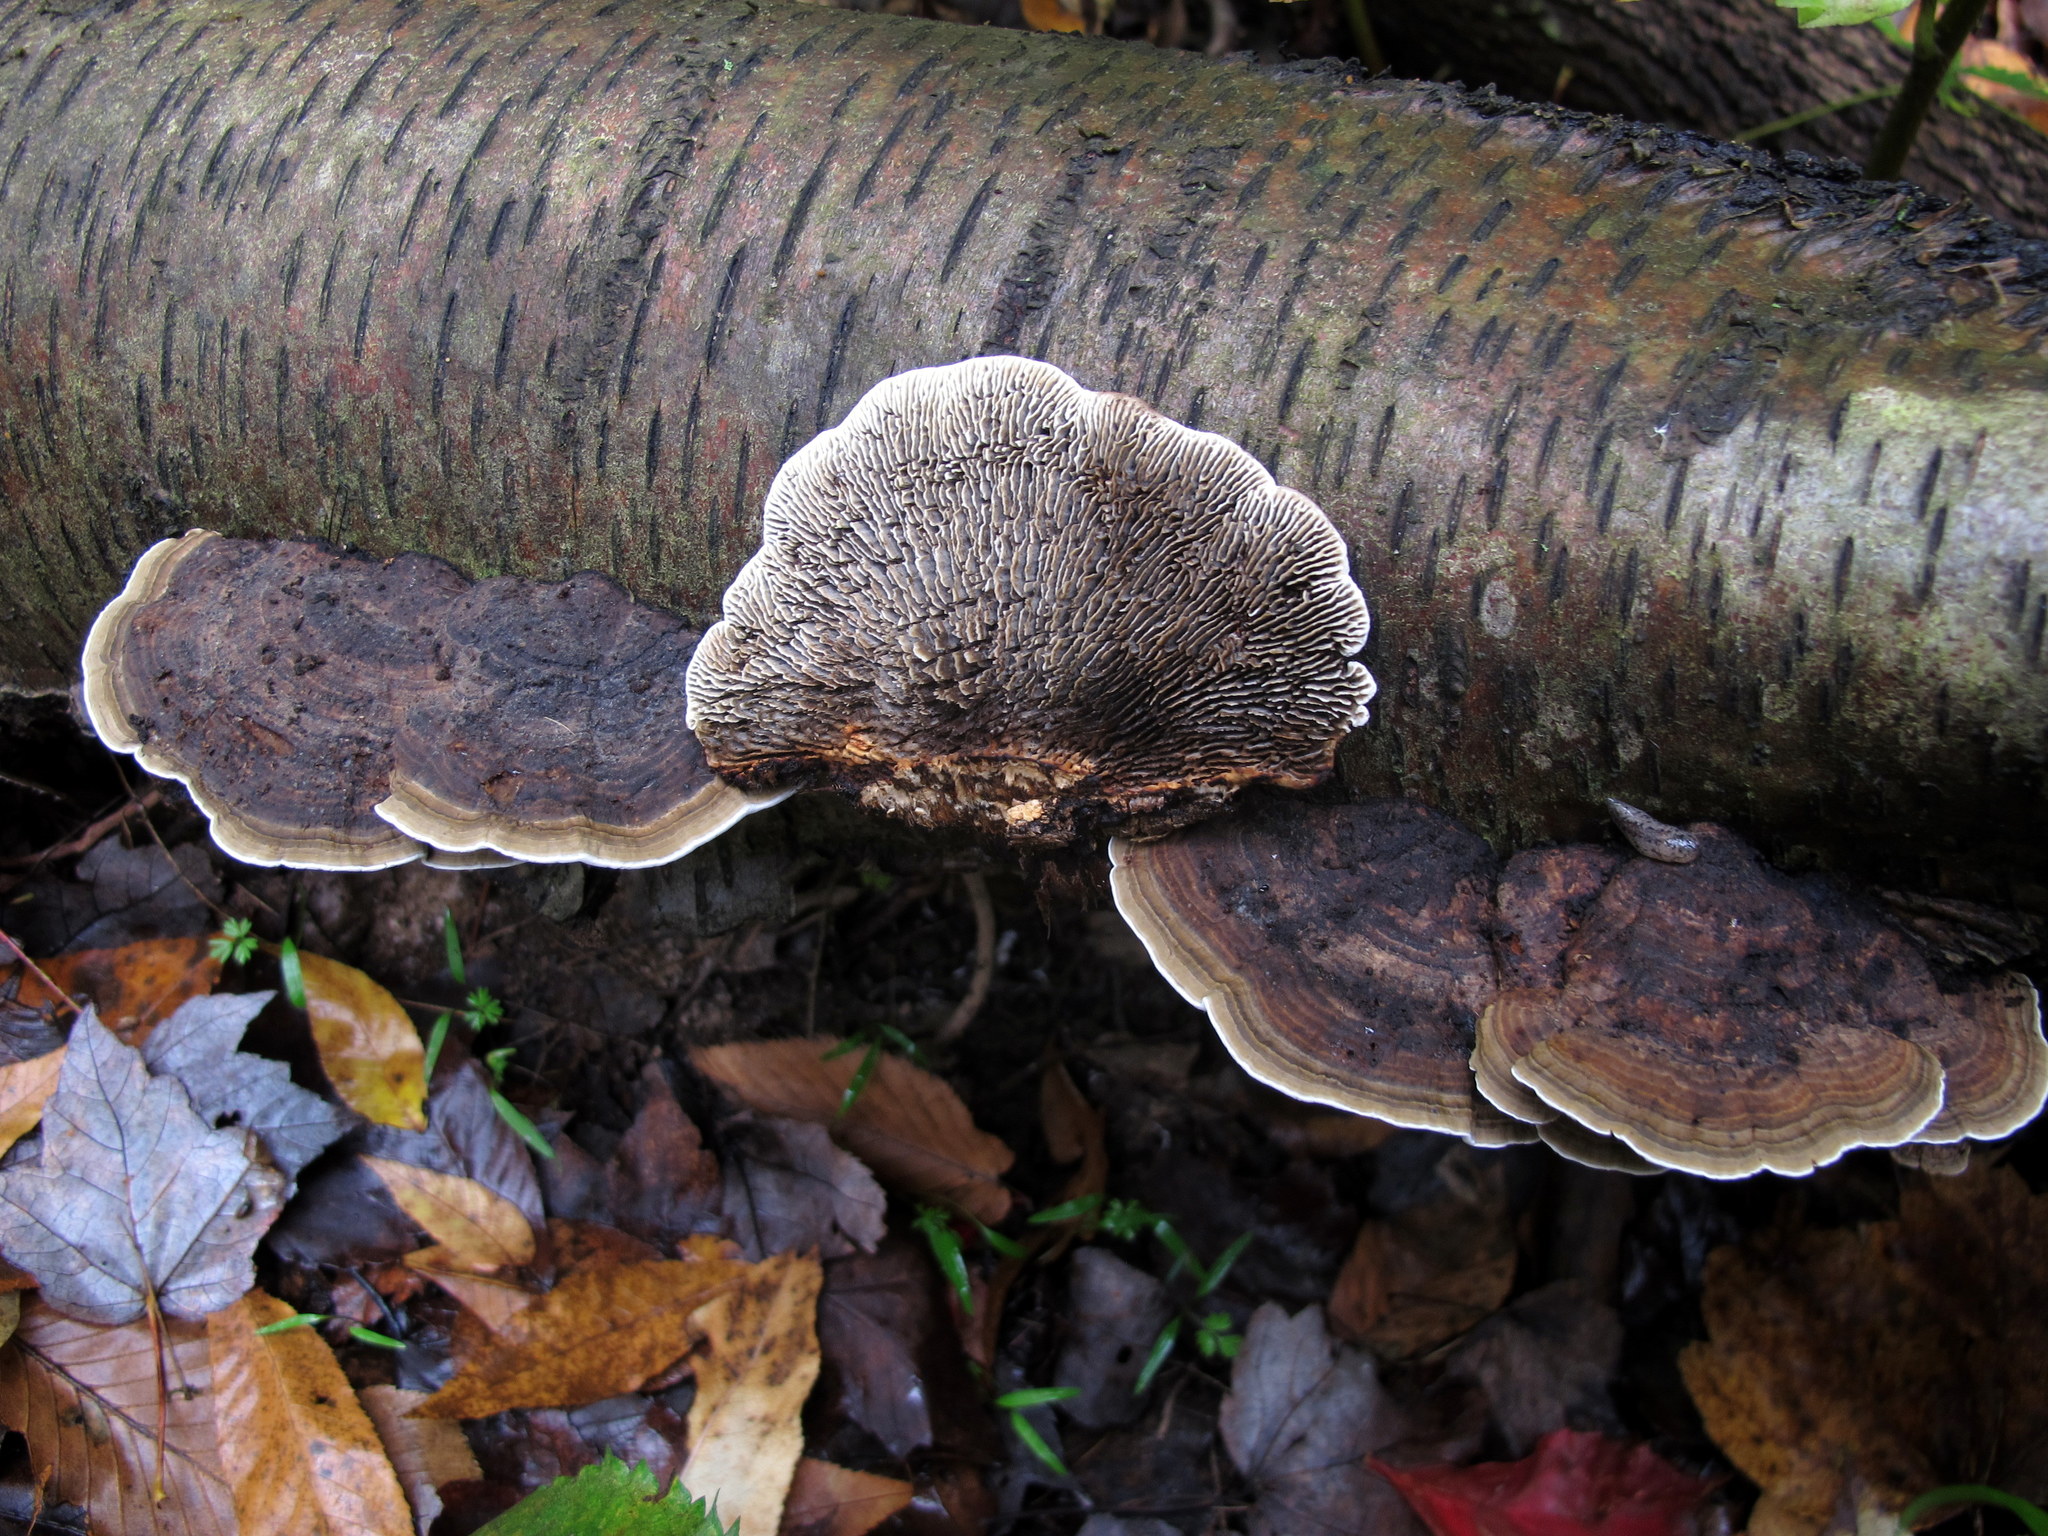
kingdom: Fungi
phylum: Basidiomycota
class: Agaricomycetes
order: Polyporales
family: Polyporaceae
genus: Daedaleopsis
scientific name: Daedaleopsis confragosa
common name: Blushing bracket
